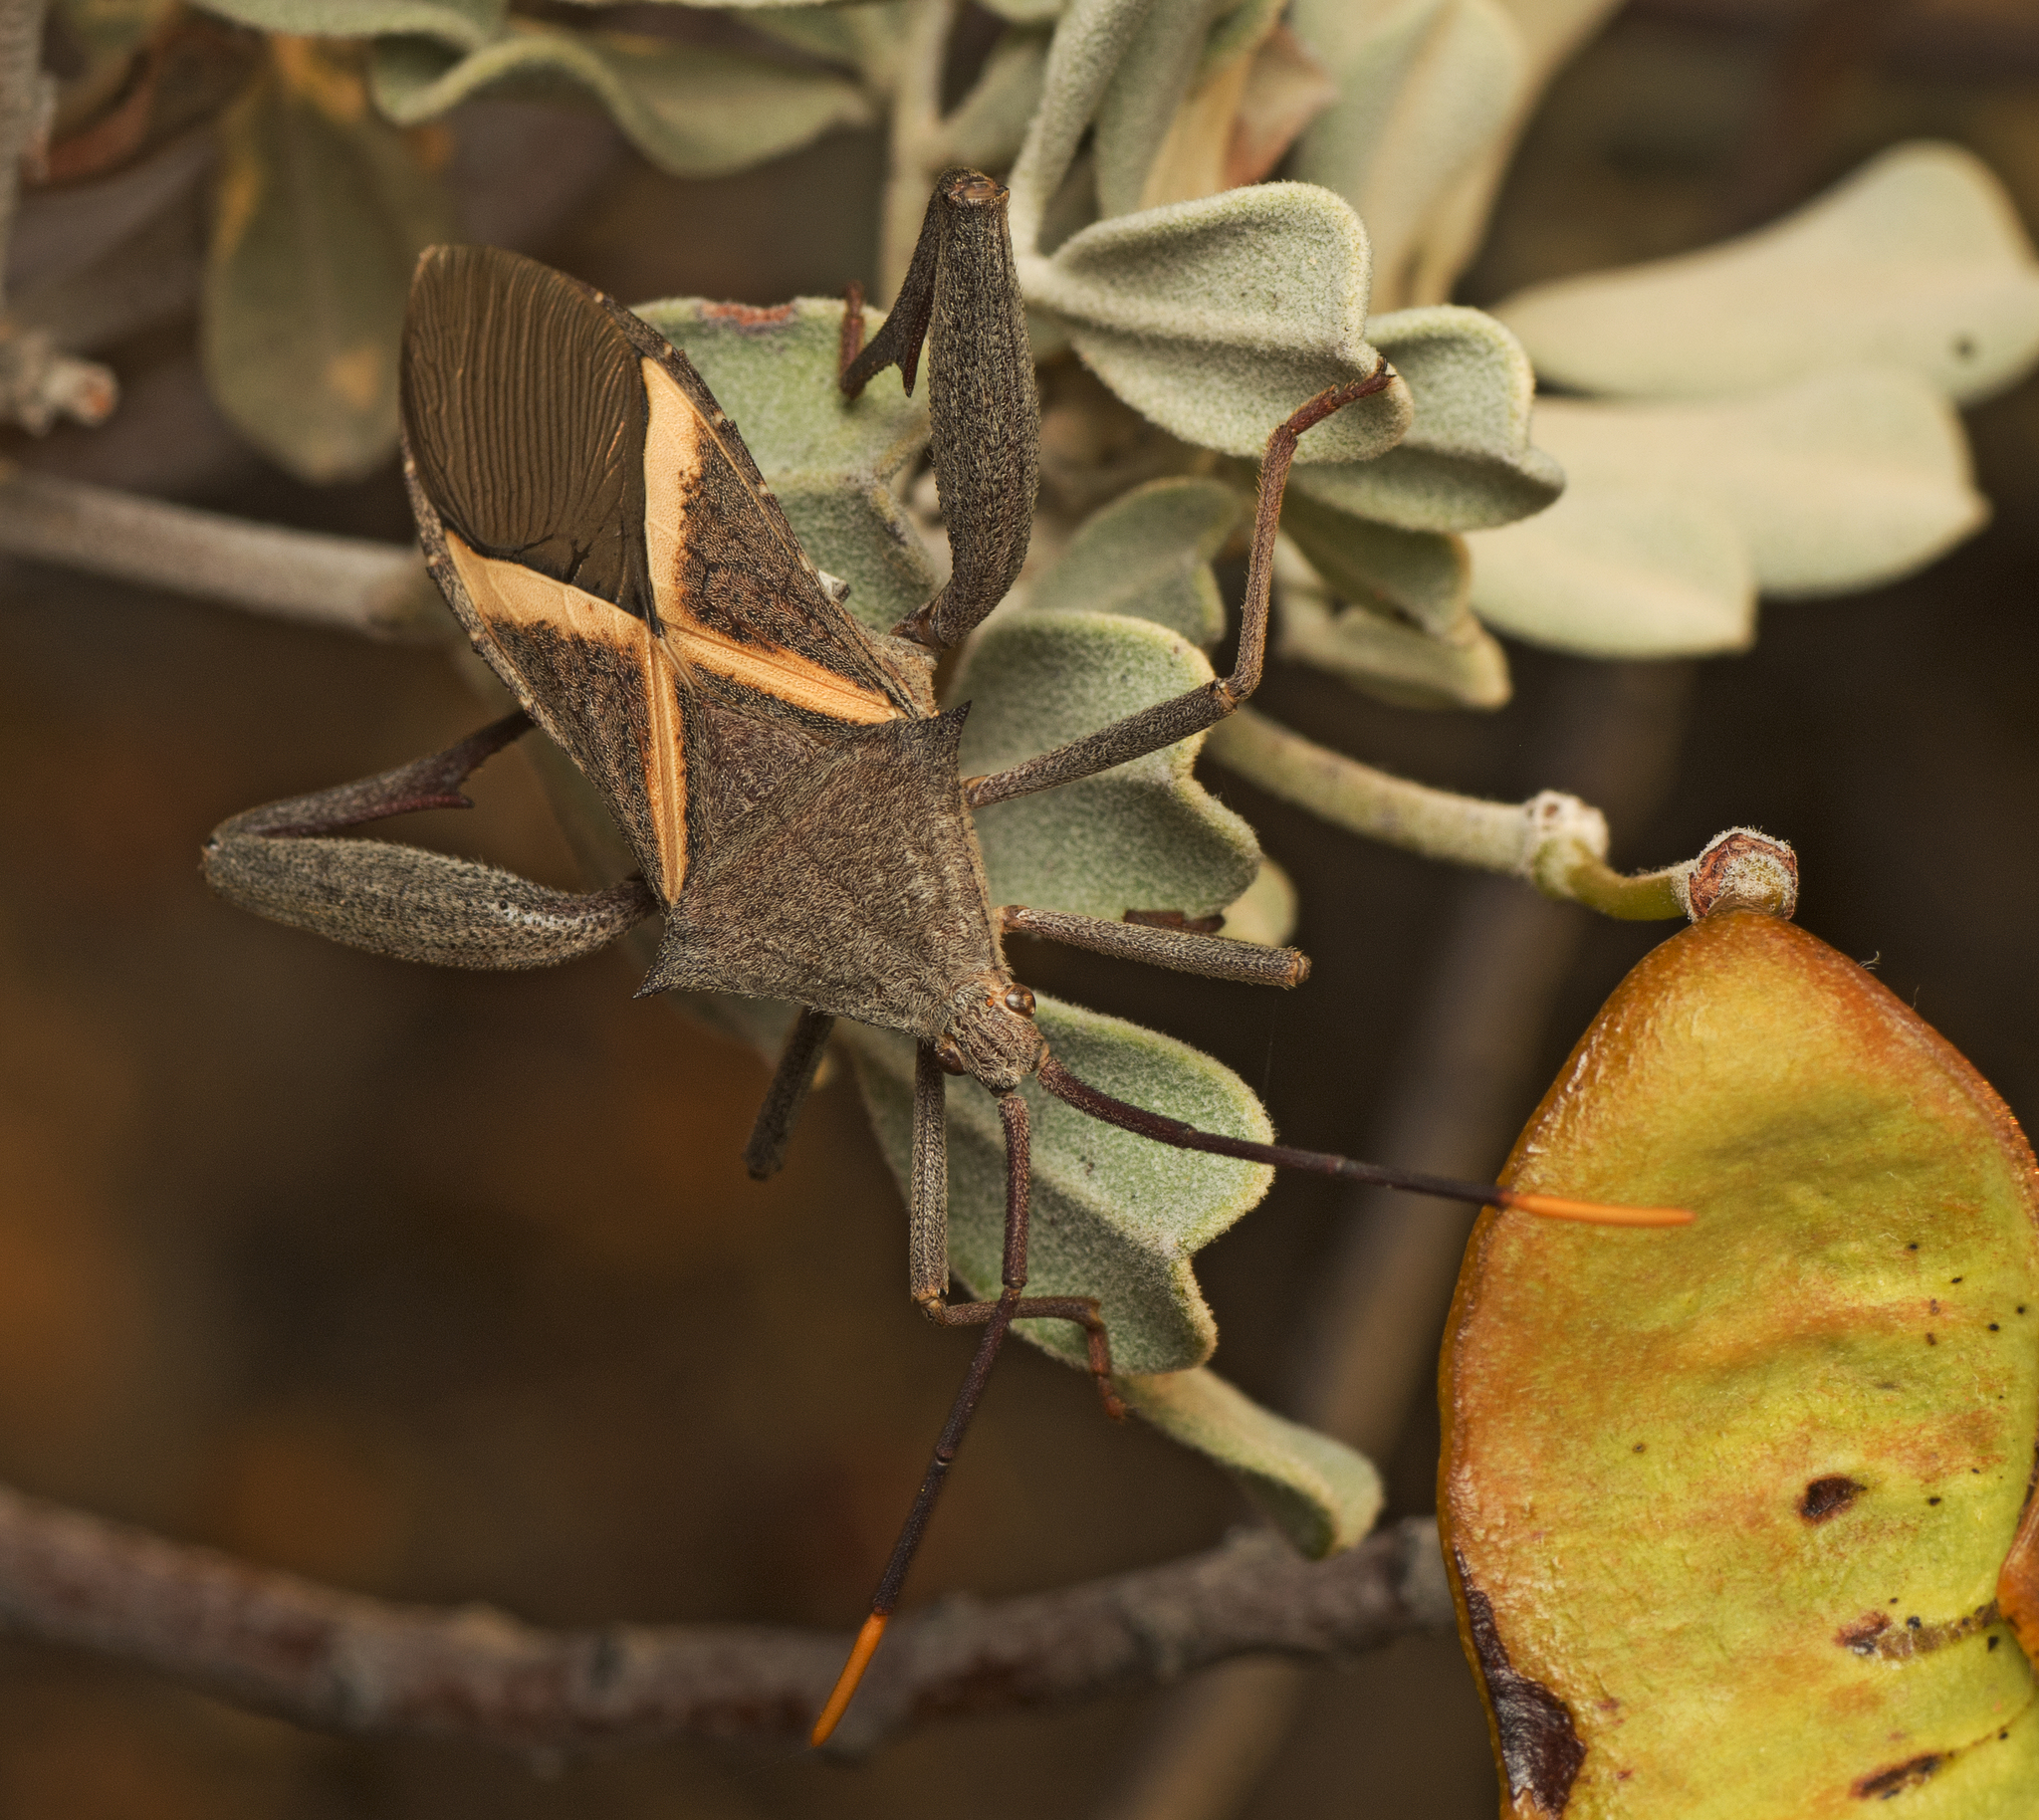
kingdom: Animalia
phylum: Arthropoda
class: Insecta
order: Hemiptera
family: Coreidae
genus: Mictis
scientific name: Mictis profana
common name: Crusader bug
